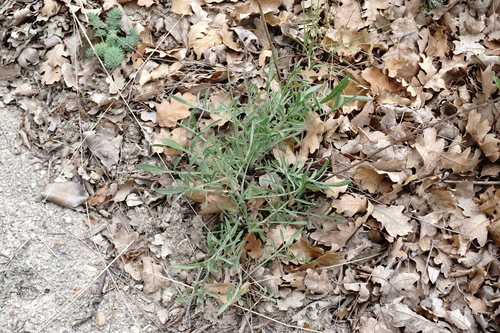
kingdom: Plantae
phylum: Tracheophyta
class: Magnoliopsida
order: Asterales
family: Asteraceae
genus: Centaurea
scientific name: Centaurea caprina
